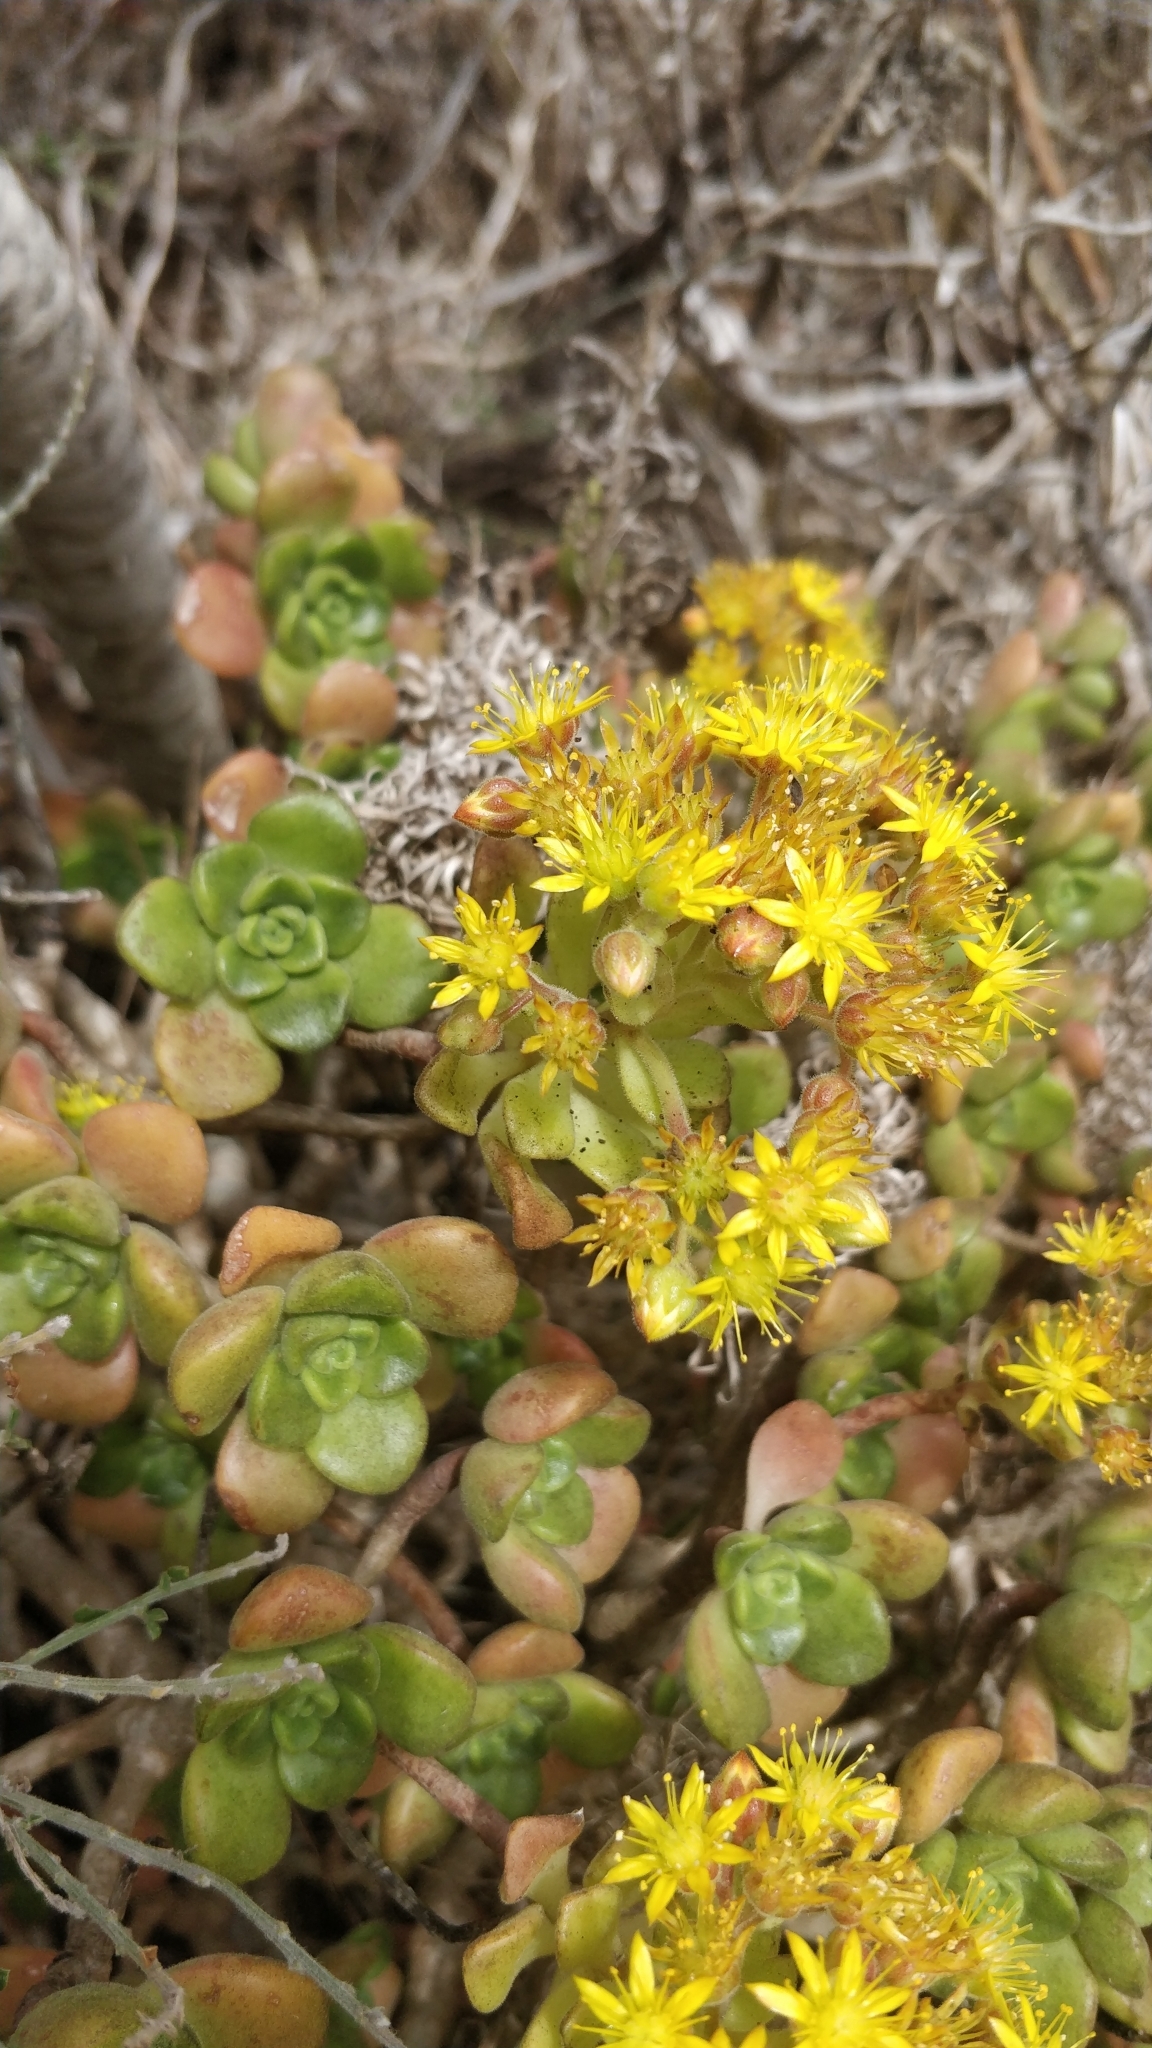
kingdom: Plantae
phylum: Tracheophyta
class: Magnoliopsida
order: Saxifragales
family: Crassulaceae
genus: Aeonium
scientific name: Aeonium lindleyi
